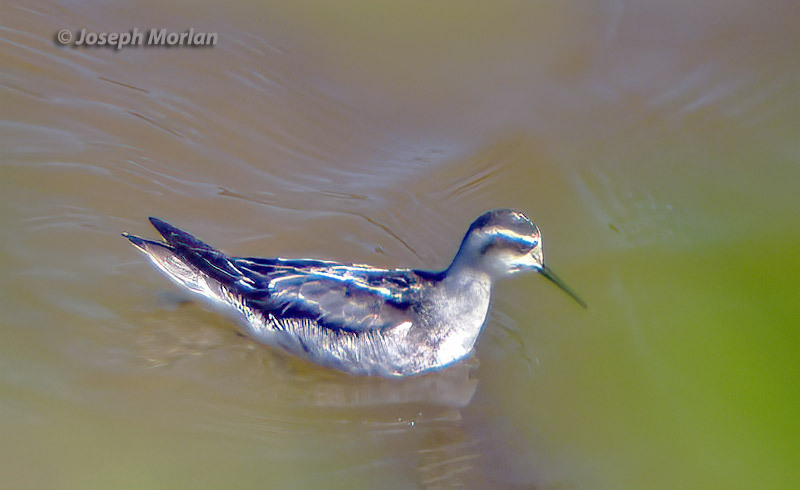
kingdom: Animalia
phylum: Chordata
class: Aves
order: Charadriiformes
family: Scolopacidae
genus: Phalaropus
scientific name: Phalaropus lobatus
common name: Red-necked phalarope
